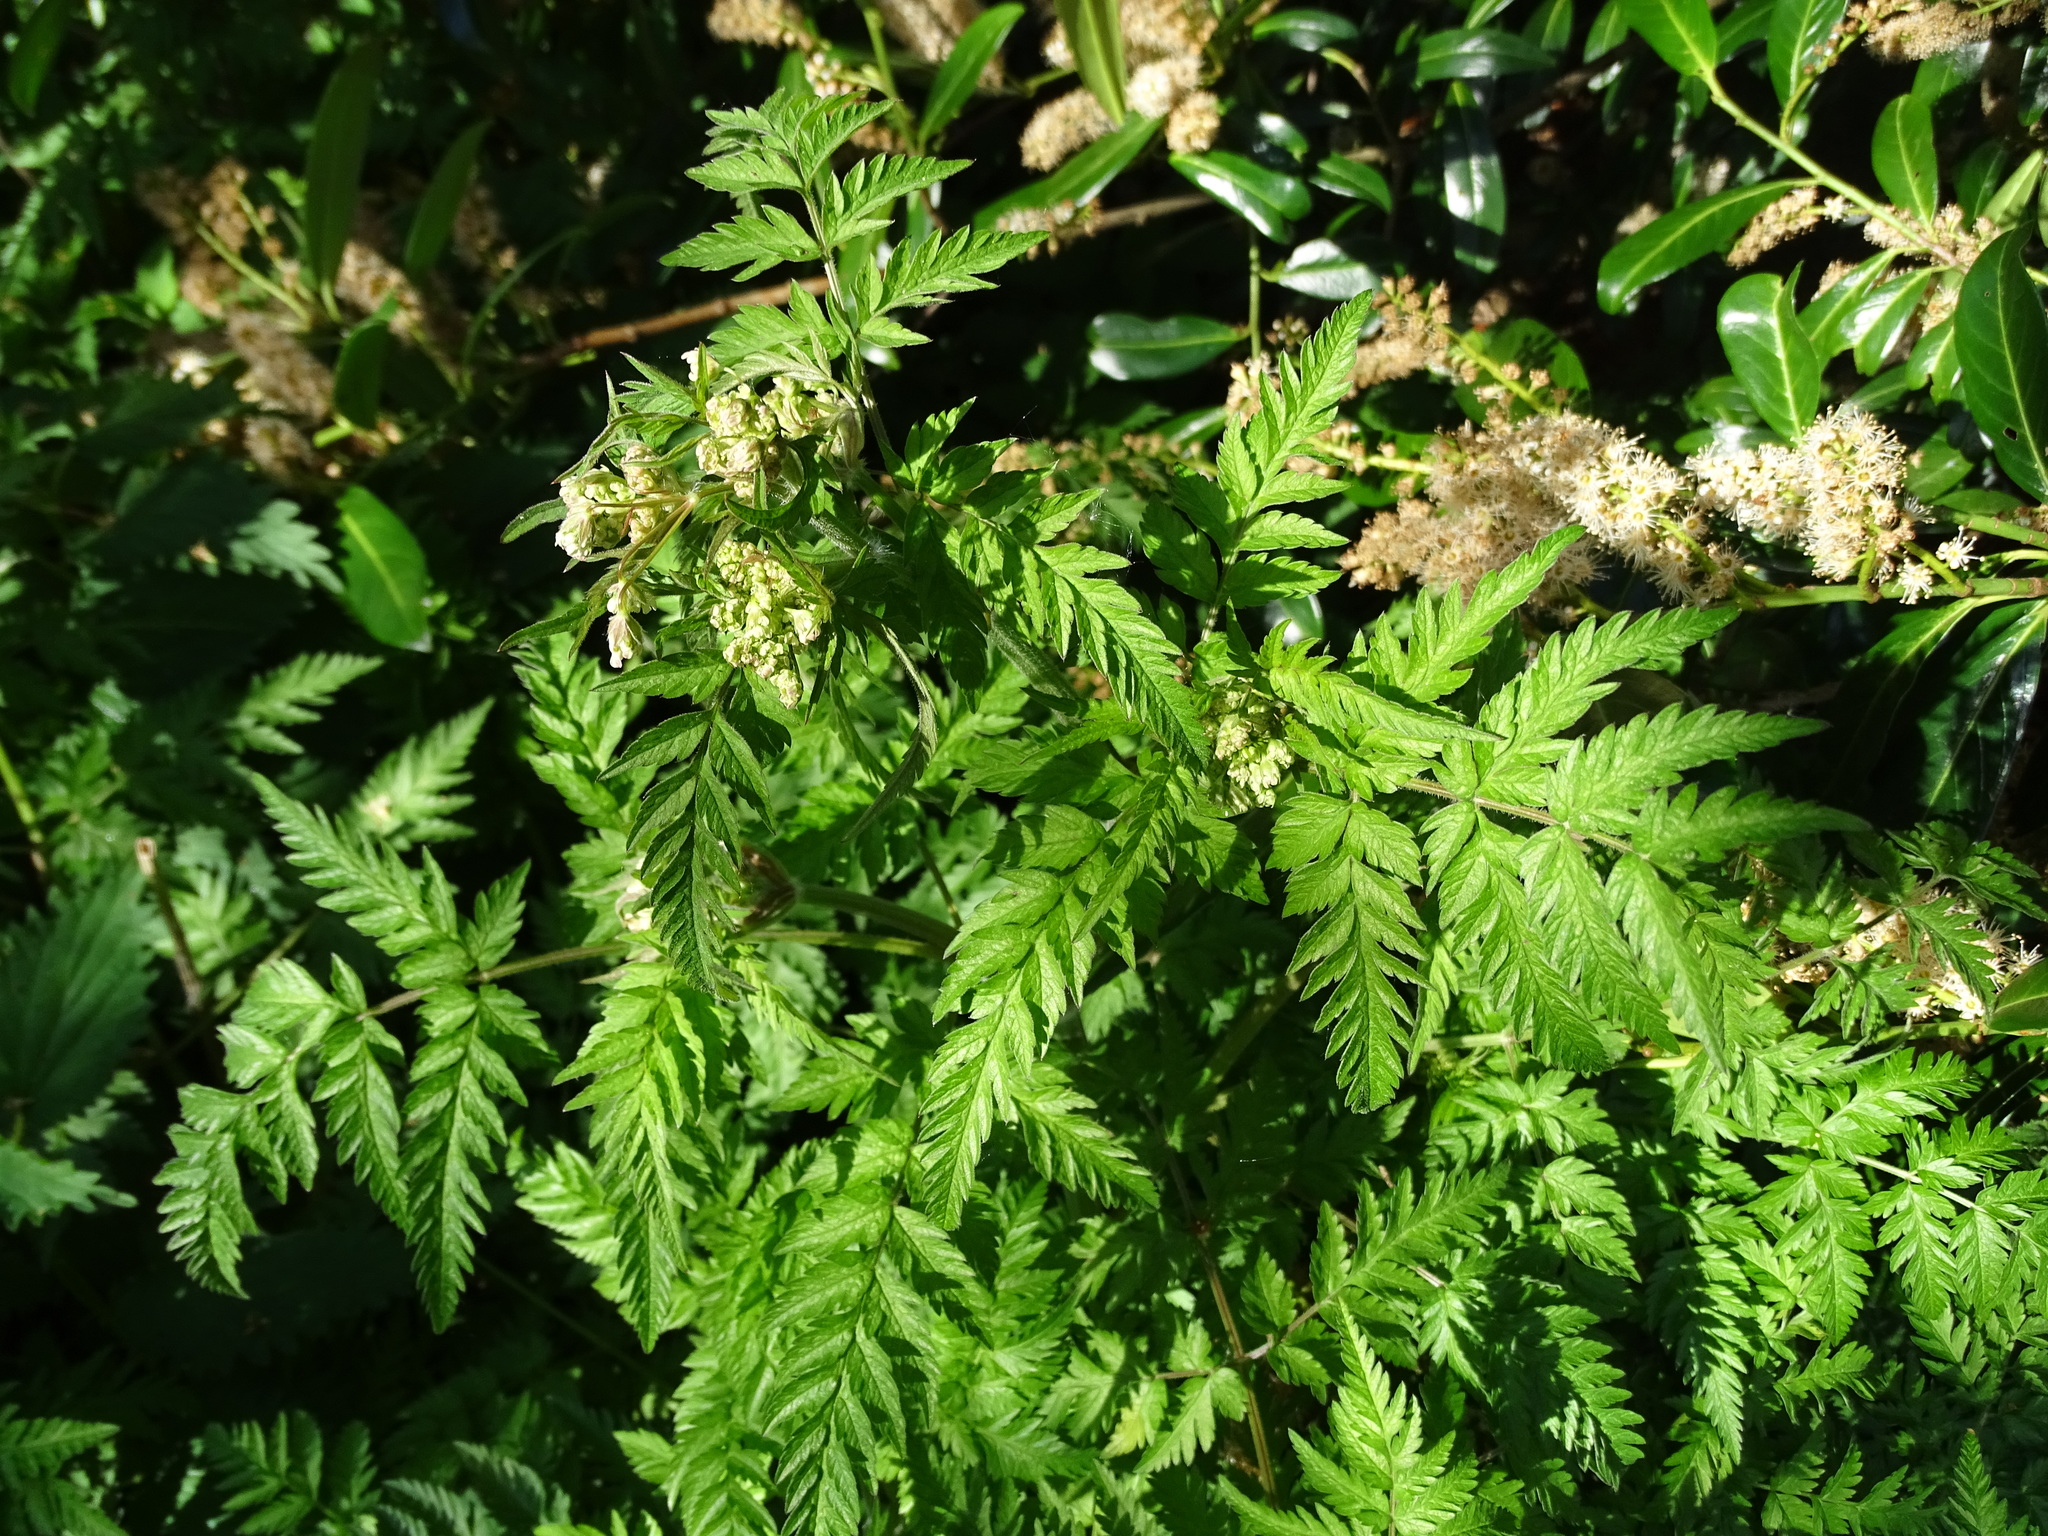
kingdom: Plantae
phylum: Tracheophyta
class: Magnoliopsida
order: Apiales
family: Apiaceae
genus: Myrrhis
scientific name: Myrrhis odorata
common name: Sweet cicely
